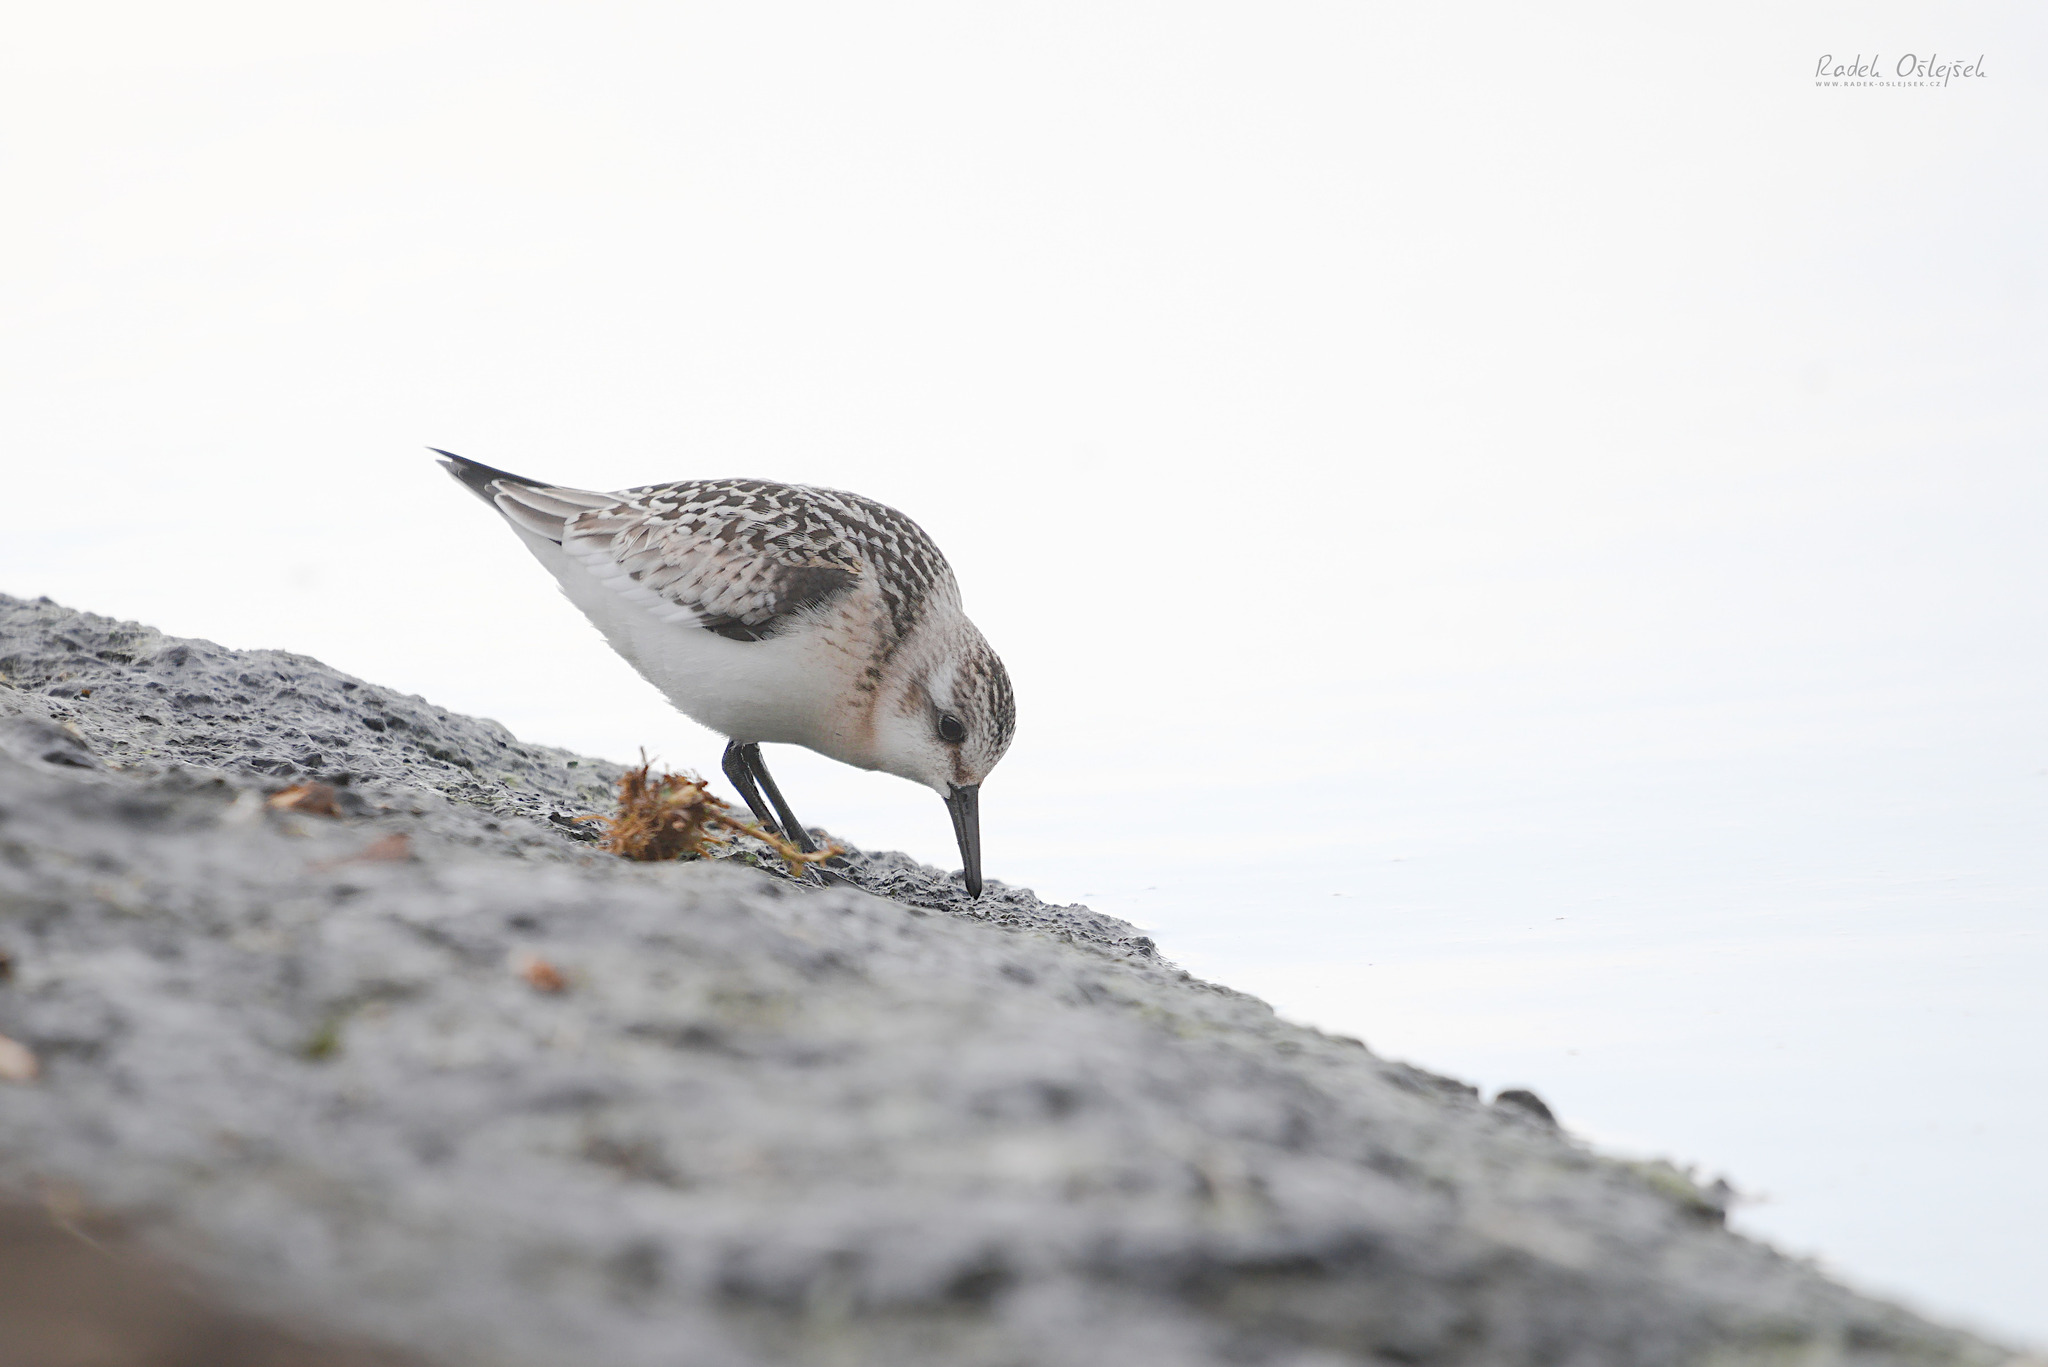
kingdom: Animalia
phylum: Chordata
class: Aves
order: Charadriiformes
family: Scolopacidae
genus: Calidris
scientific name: Calidris alba
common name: Sanderling
